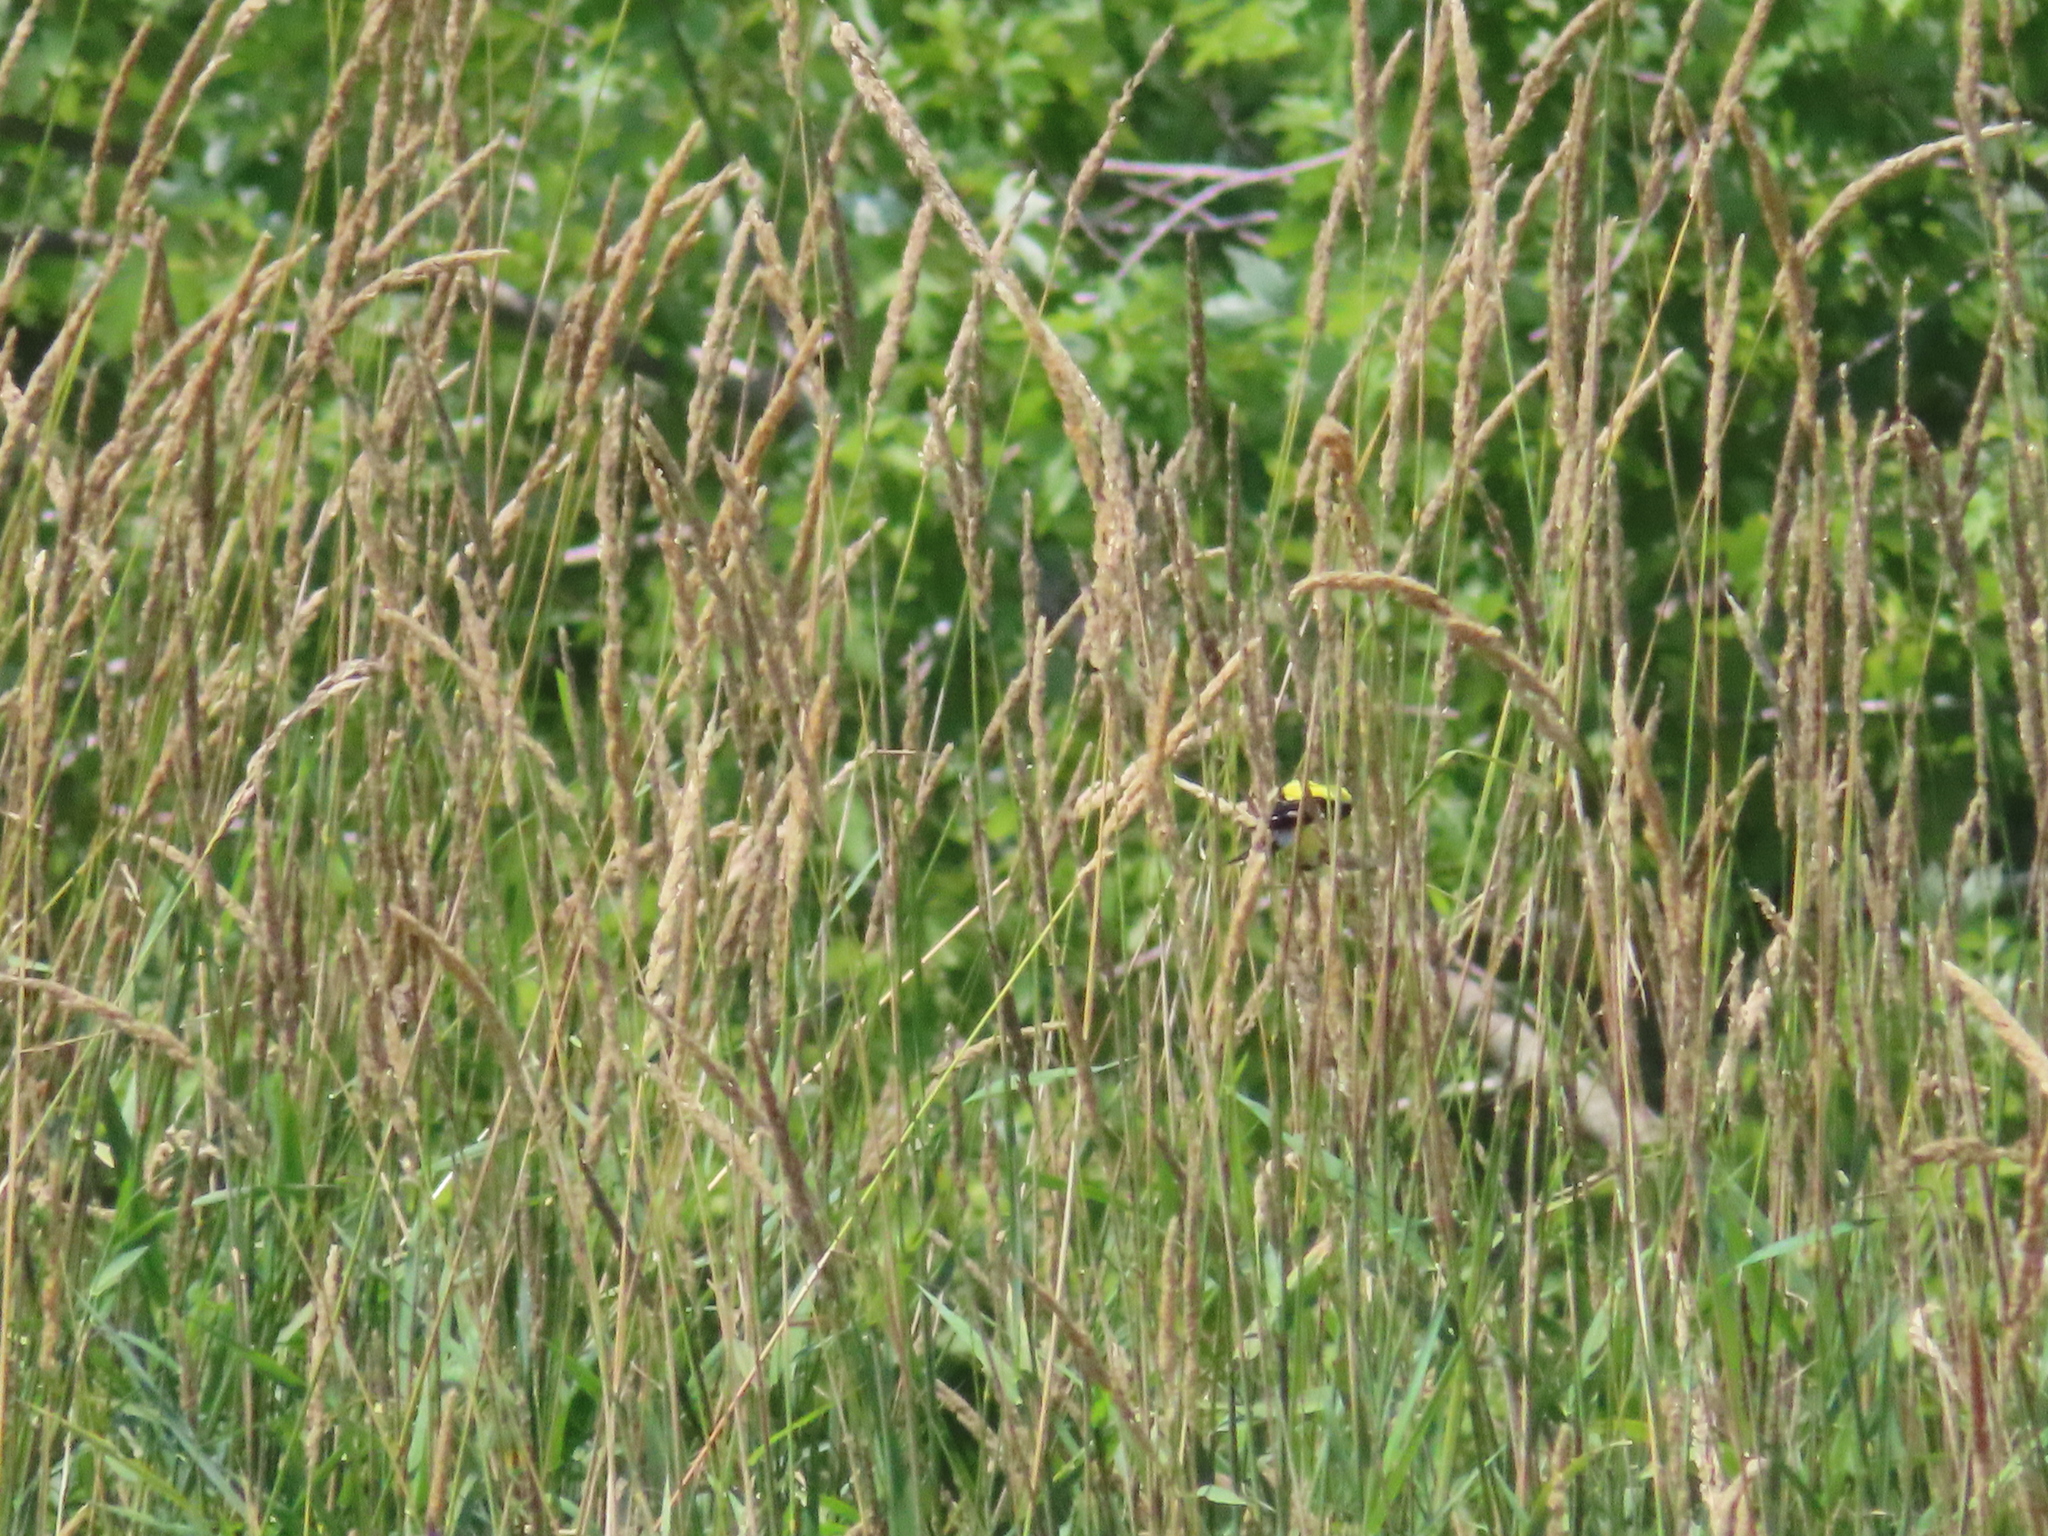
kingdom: Animalia
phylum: Chordata
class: Aves
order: Passeriformes
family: Fringillidae
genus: Spinus
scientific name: Spinus tristis
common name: American goldfinch
